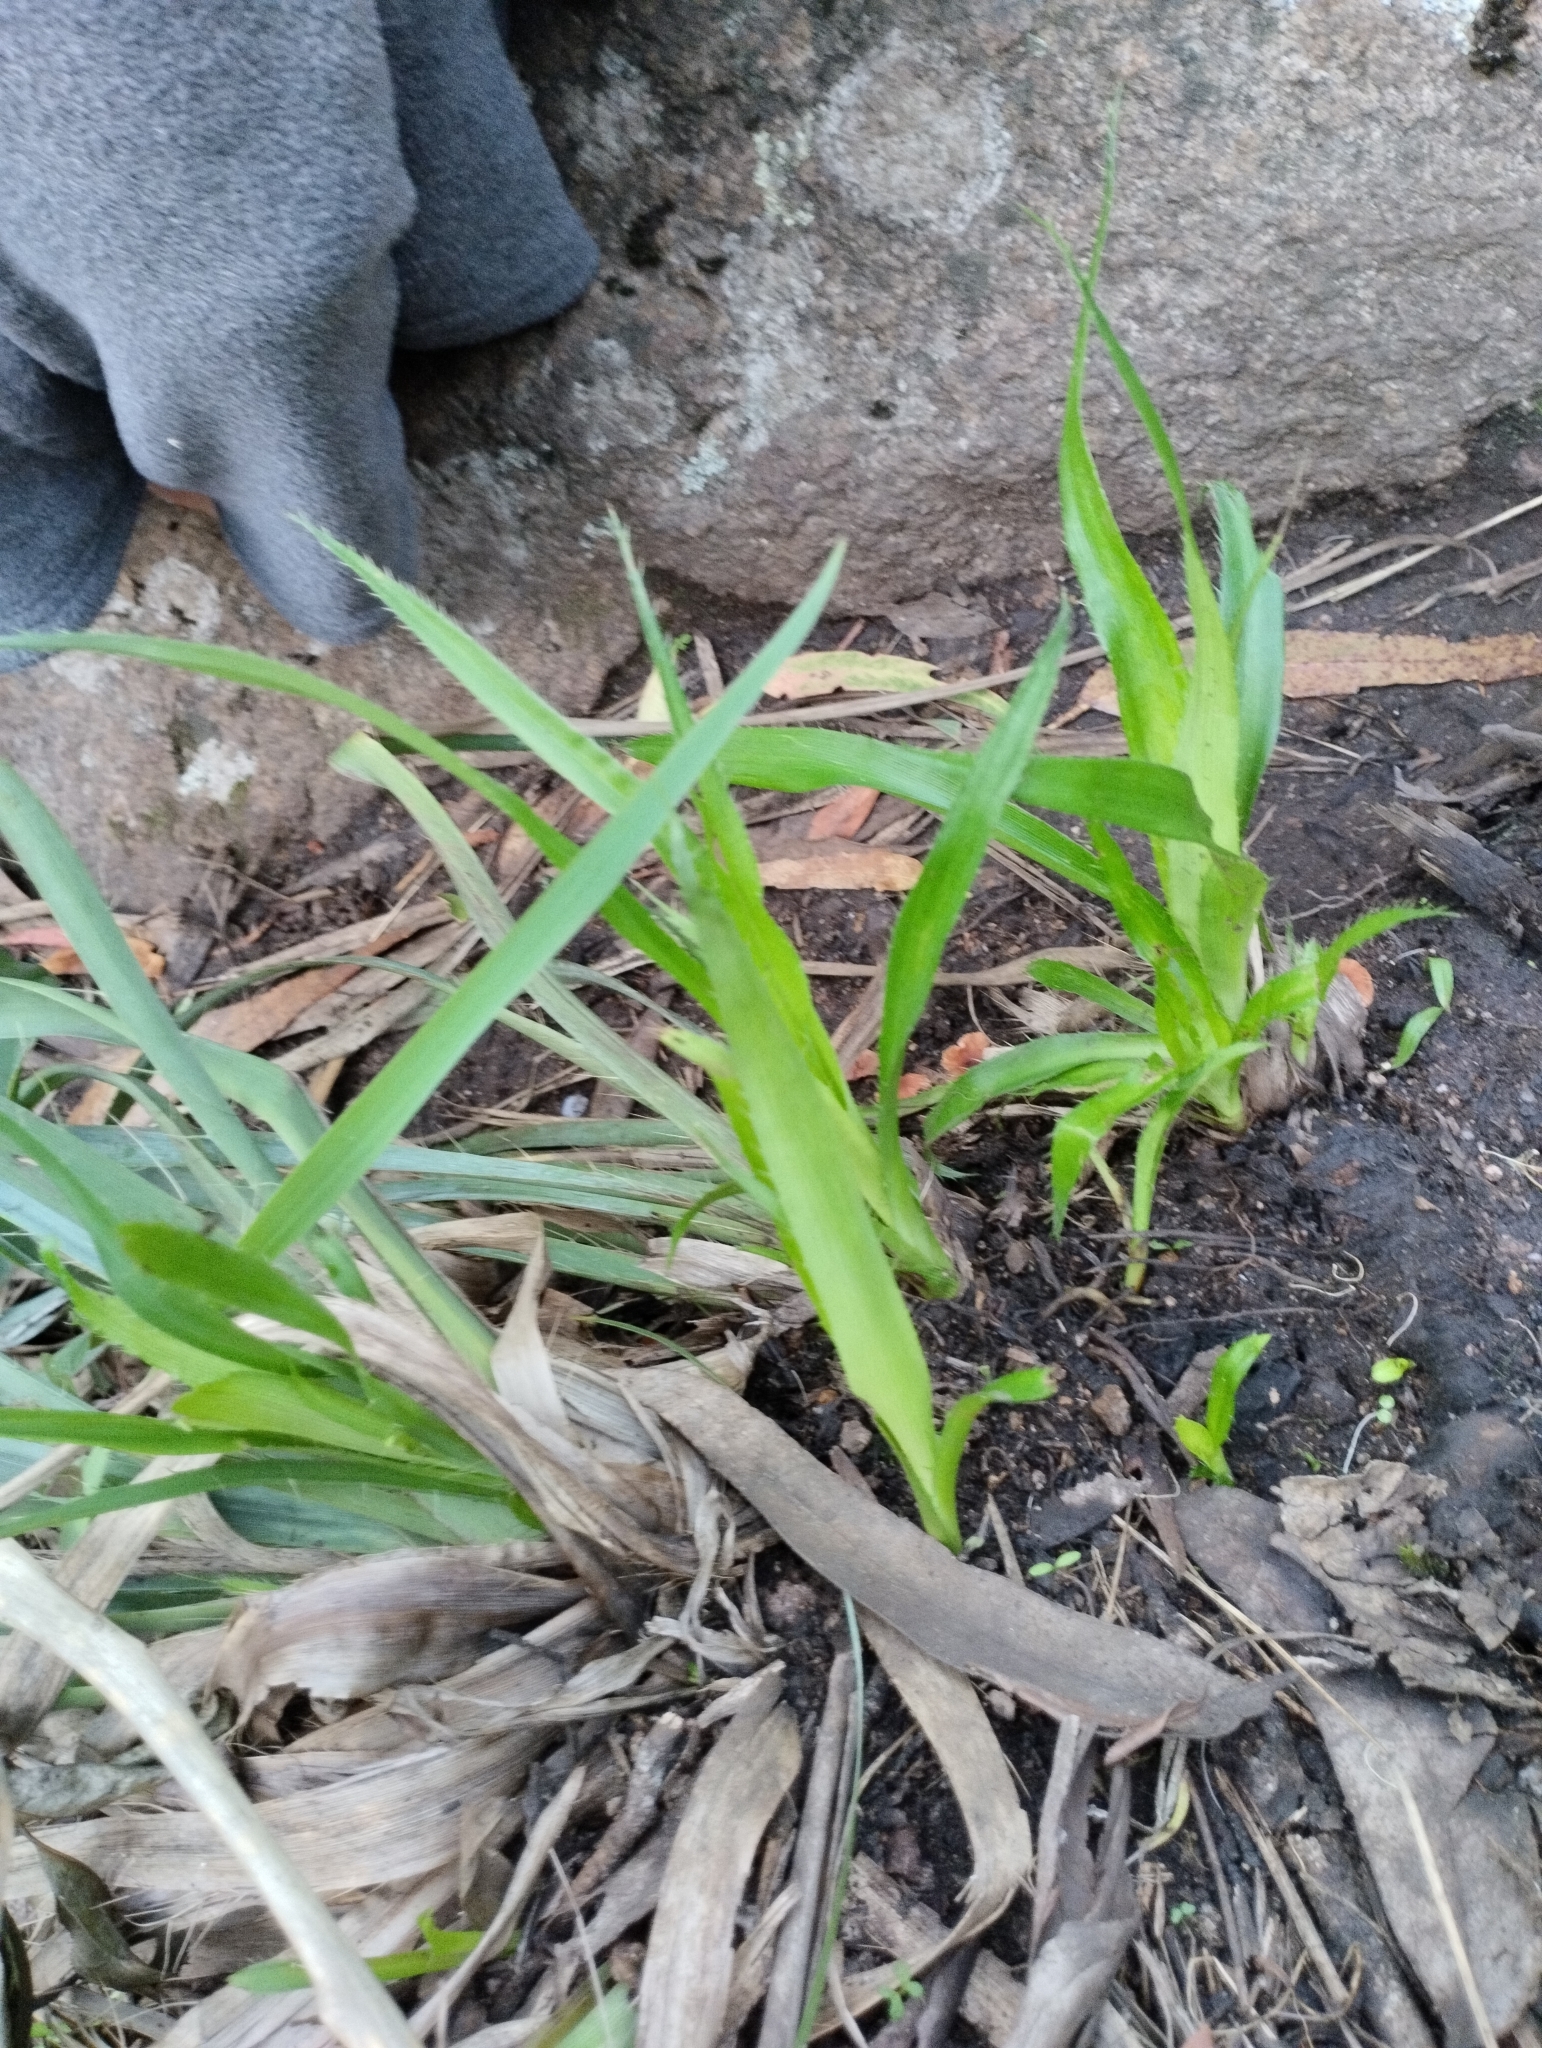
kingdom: Plantae
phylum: Tracheophyta
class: Magnoliopsida
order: Apiales
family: Apiaceae
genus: Eryngium
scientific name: Eryngium regnellii
